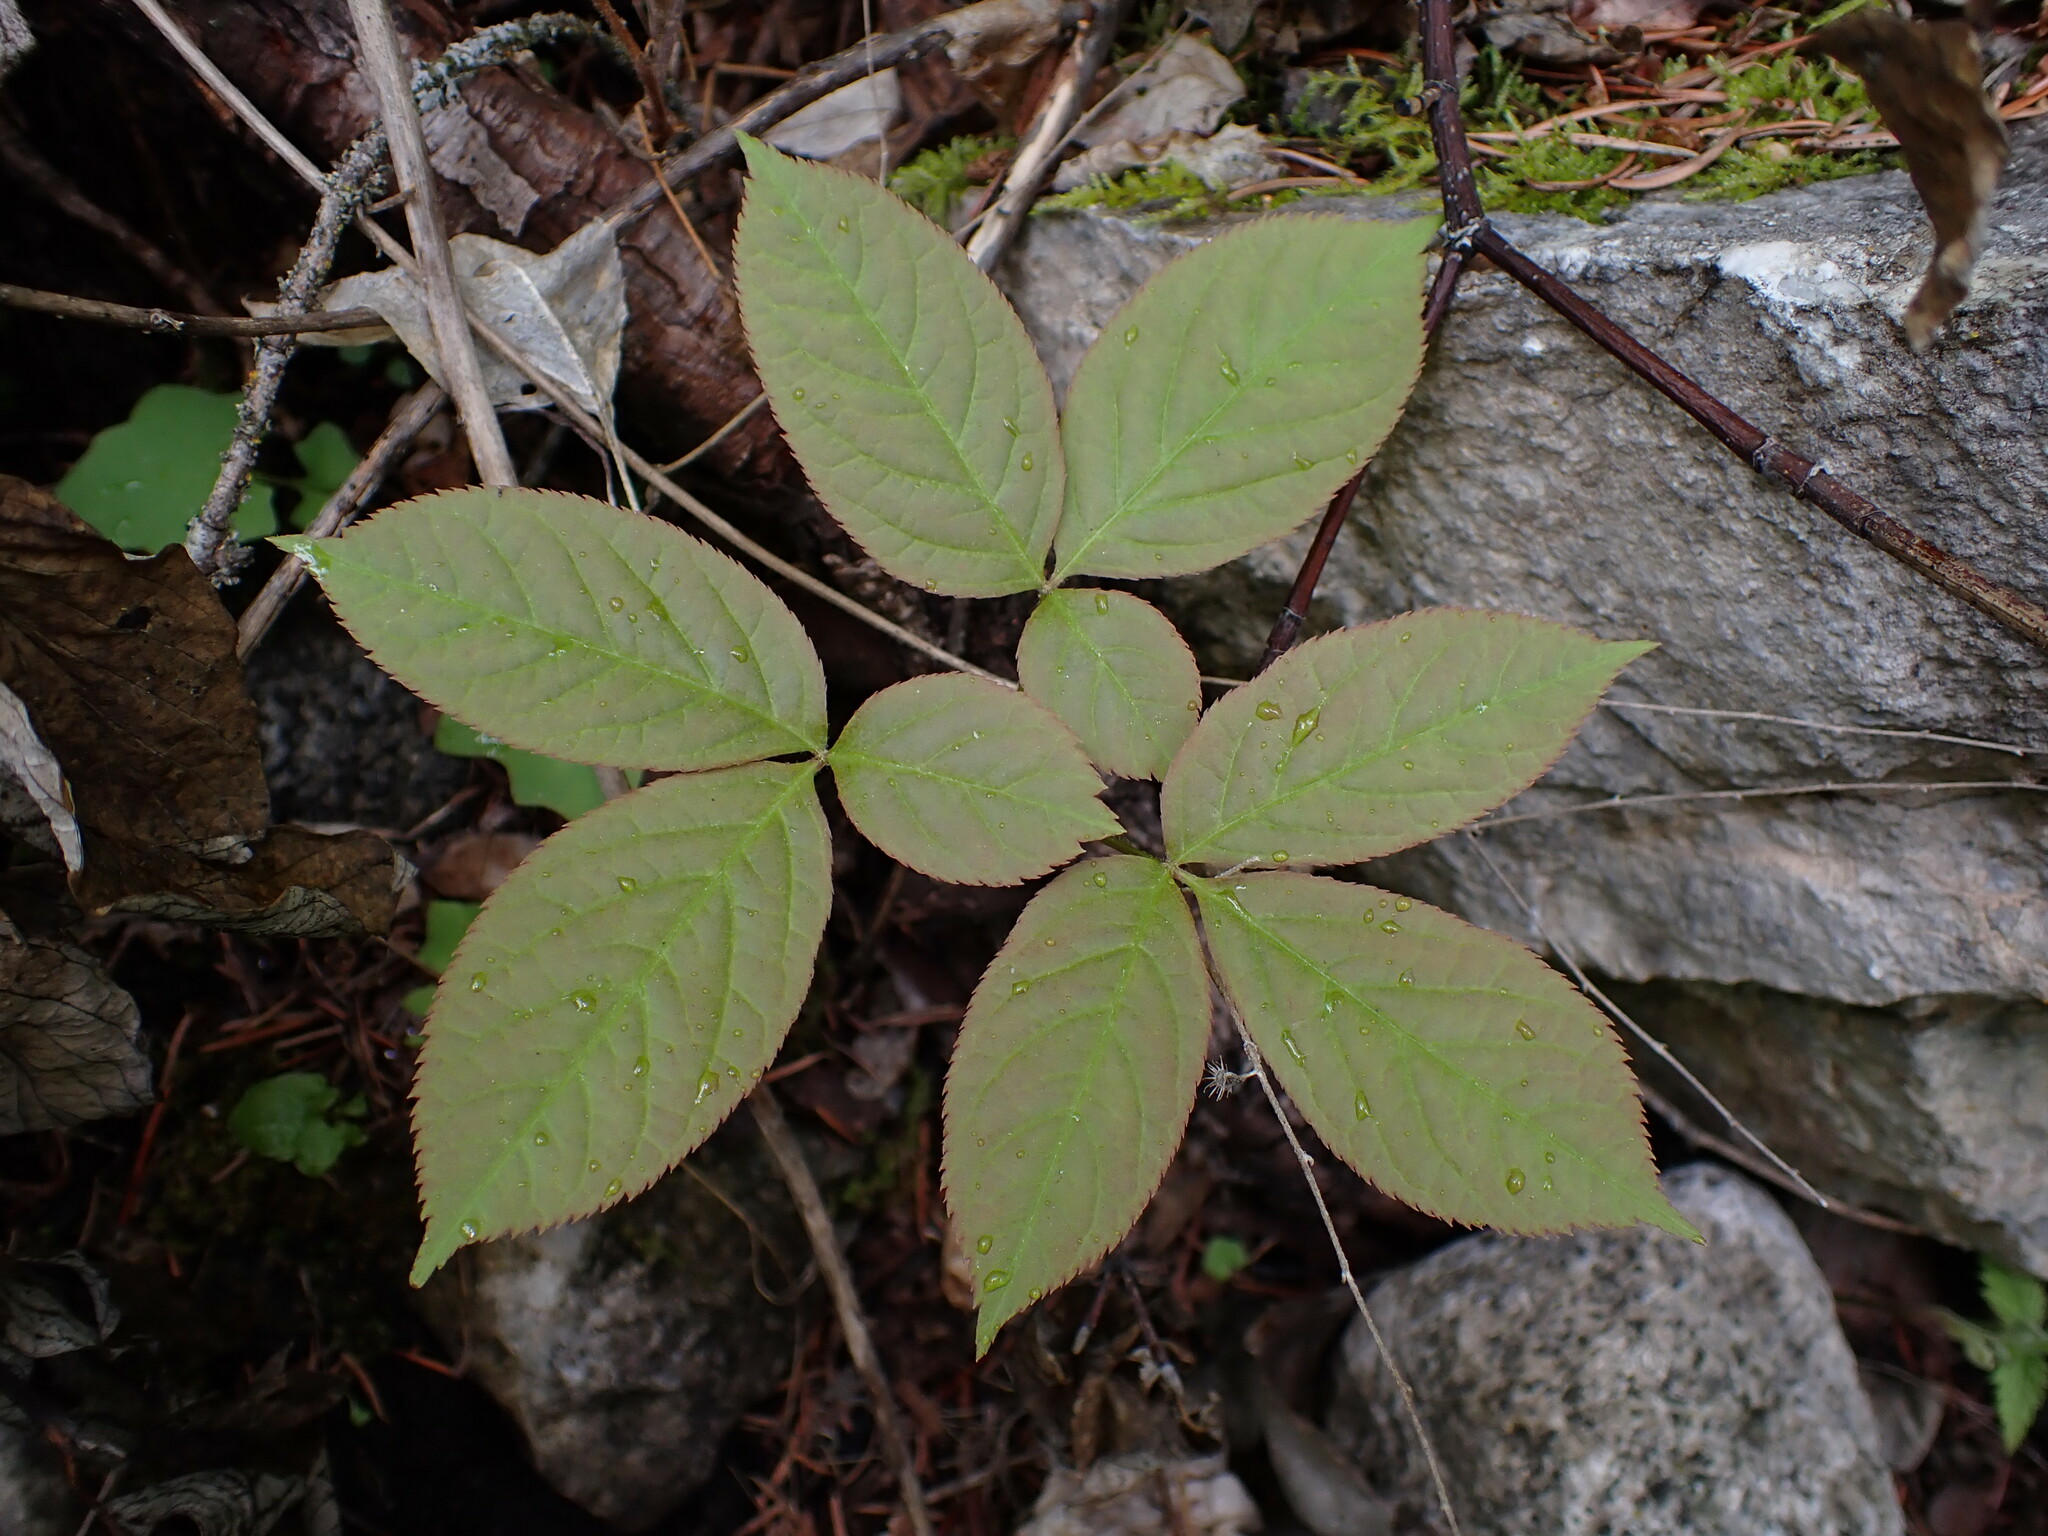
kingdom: Plantae
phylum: Tracheophyta
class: Magnoliopsida
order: Apiales
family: Araliaceae
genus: Aralia
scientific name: Aralia nudicaulis
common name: Wild sarsaparilla
